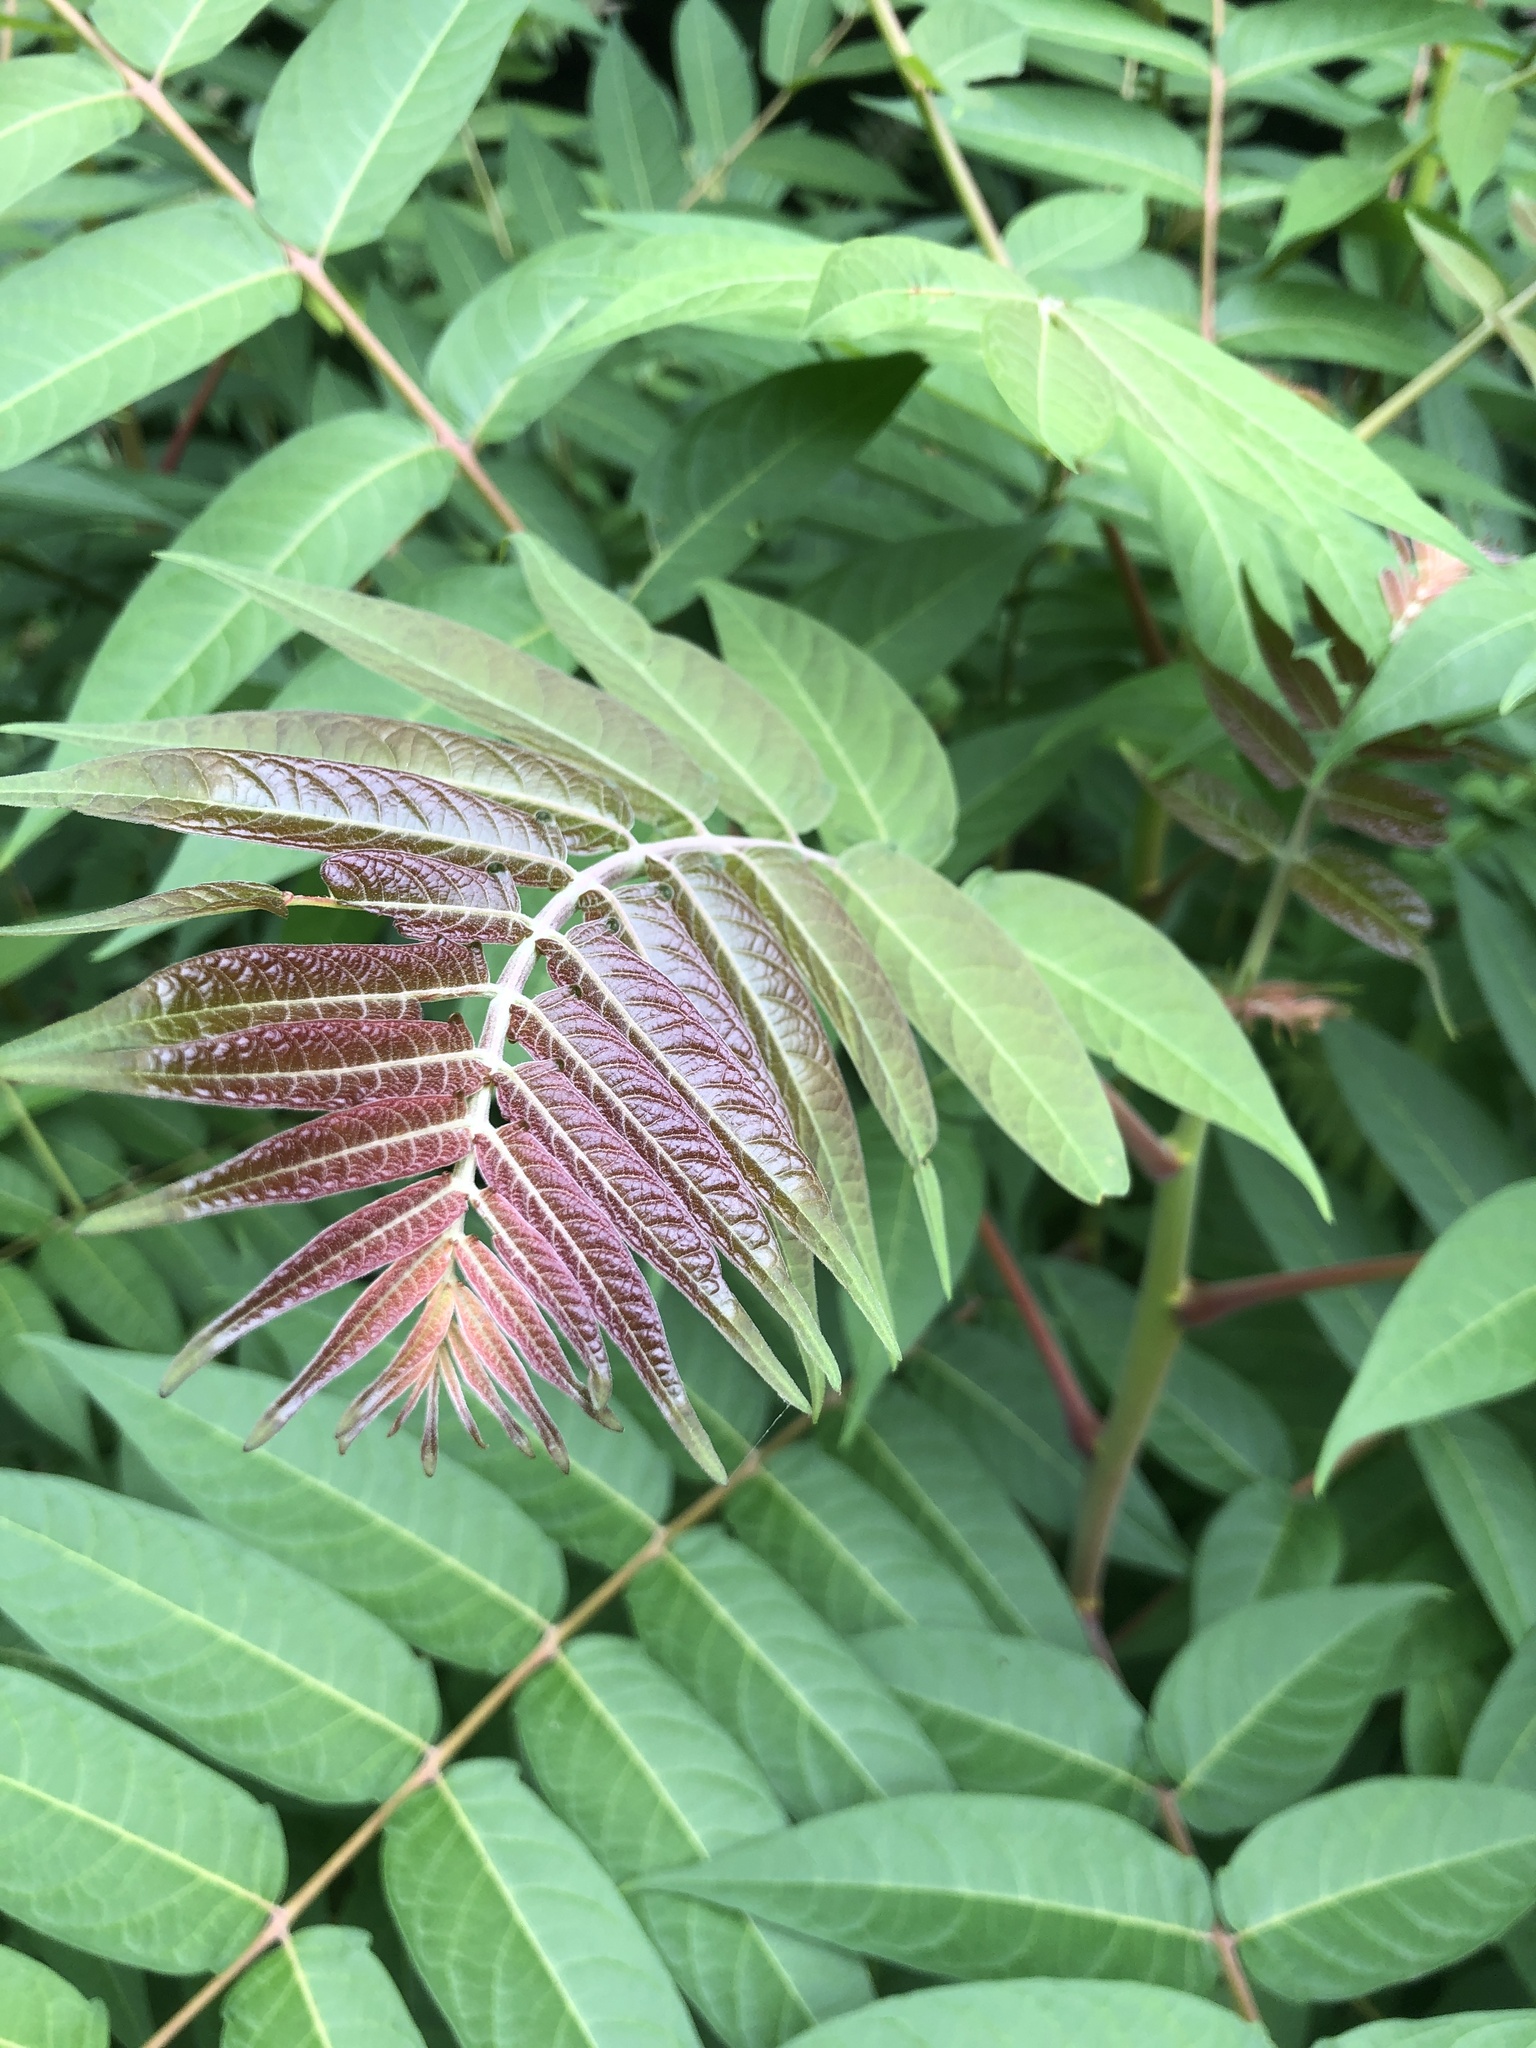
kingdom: Plantae
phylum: Tracheophyta
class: Magnoliopsida
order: Sapindales
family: Simaroubaceae
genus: Ailanthus
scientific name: Ailanthus altissima
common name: Tree-of-heaven
